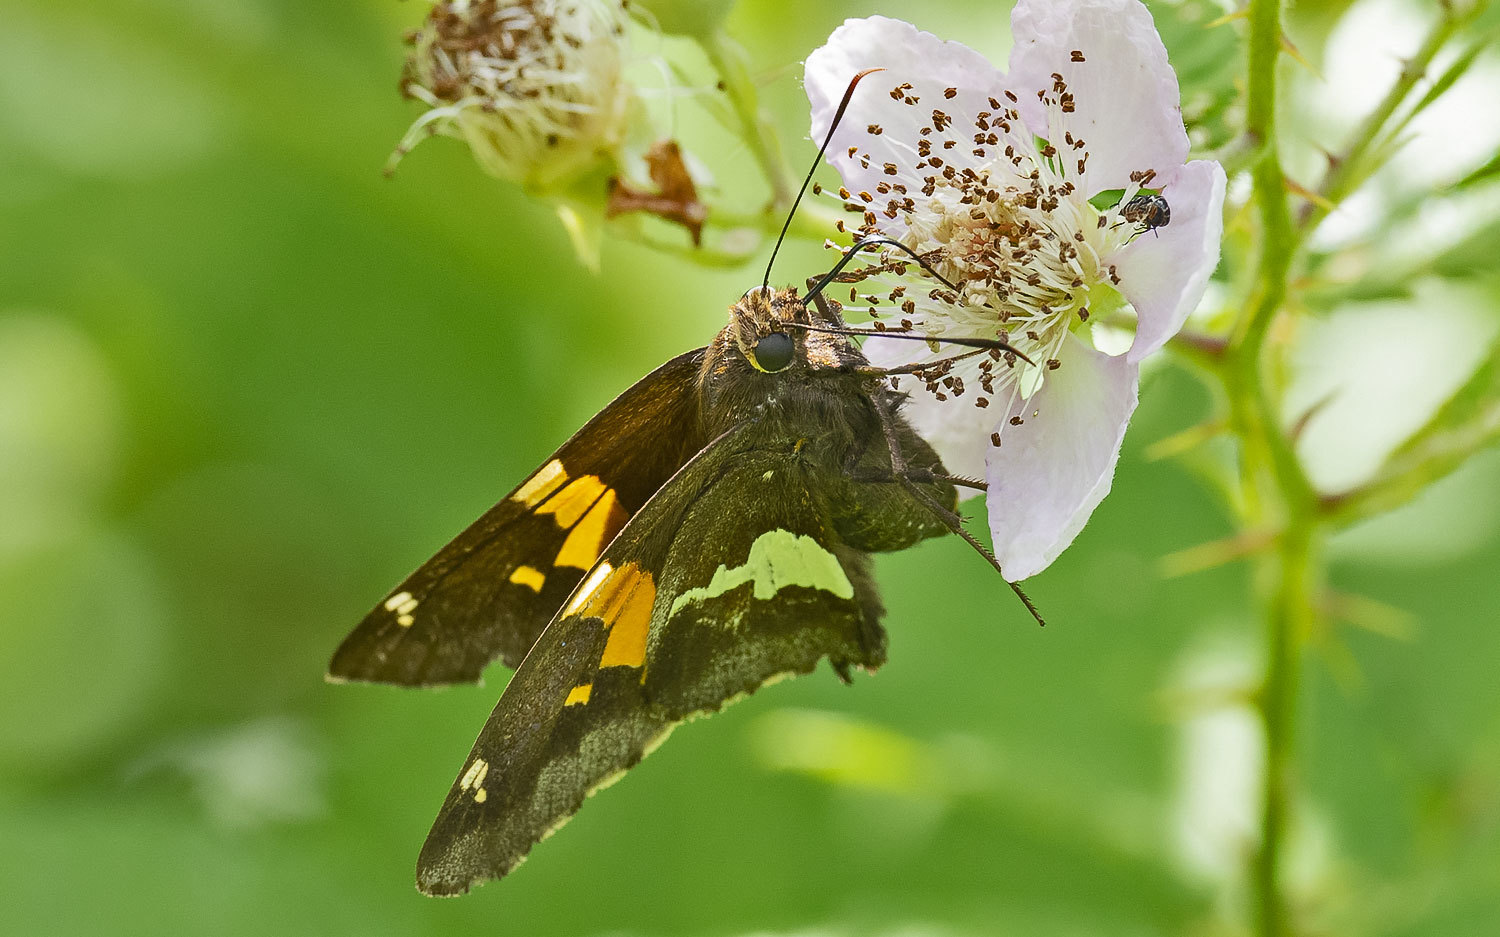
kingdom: Animalia
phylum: Arthropoda
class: Insecta
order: Lepidoptera
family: Hesperiidae
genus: Epargyreus
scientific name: Epargyreus clarus
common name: Silver-spotted skipper
